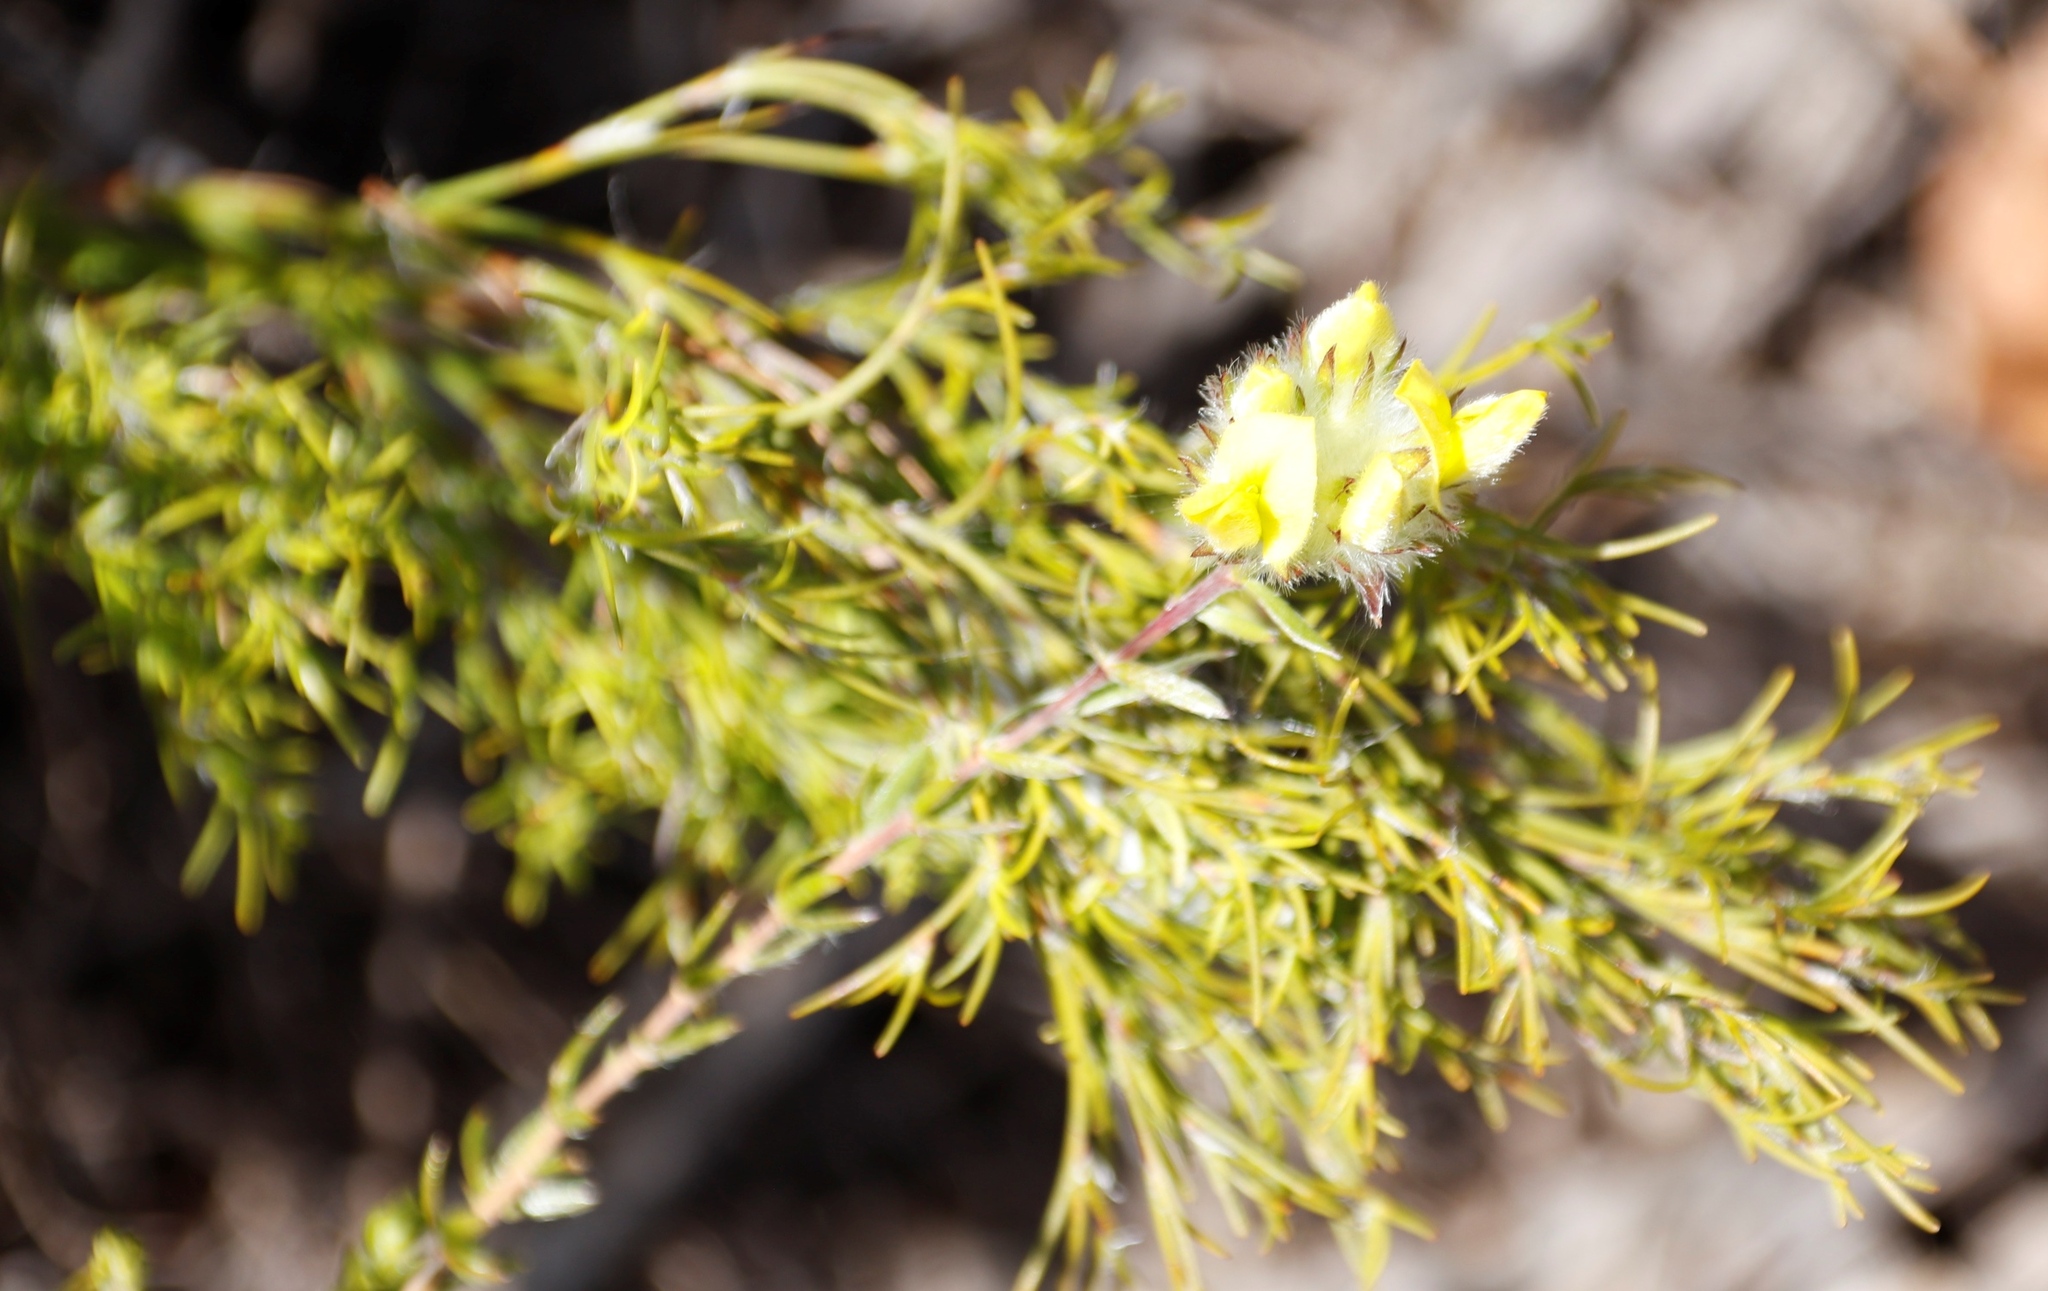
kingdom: Plantae
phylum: Tracheophyta
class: Magnoliopsida
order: Fabales
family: Fabaceae
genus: Aspalathus
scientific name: Aspalathus tridentata
